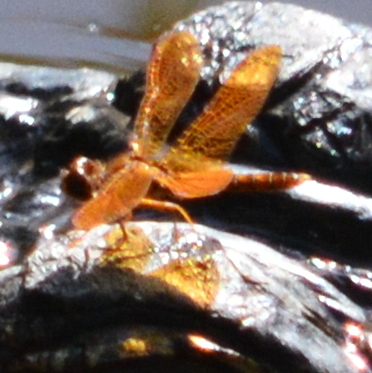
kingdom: Animalia
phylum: Arthropoda
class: Insecta
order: Odonata
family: Libellulidae
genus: Perithemis
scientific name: Perithemis tenera
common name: Eastern amberwing
